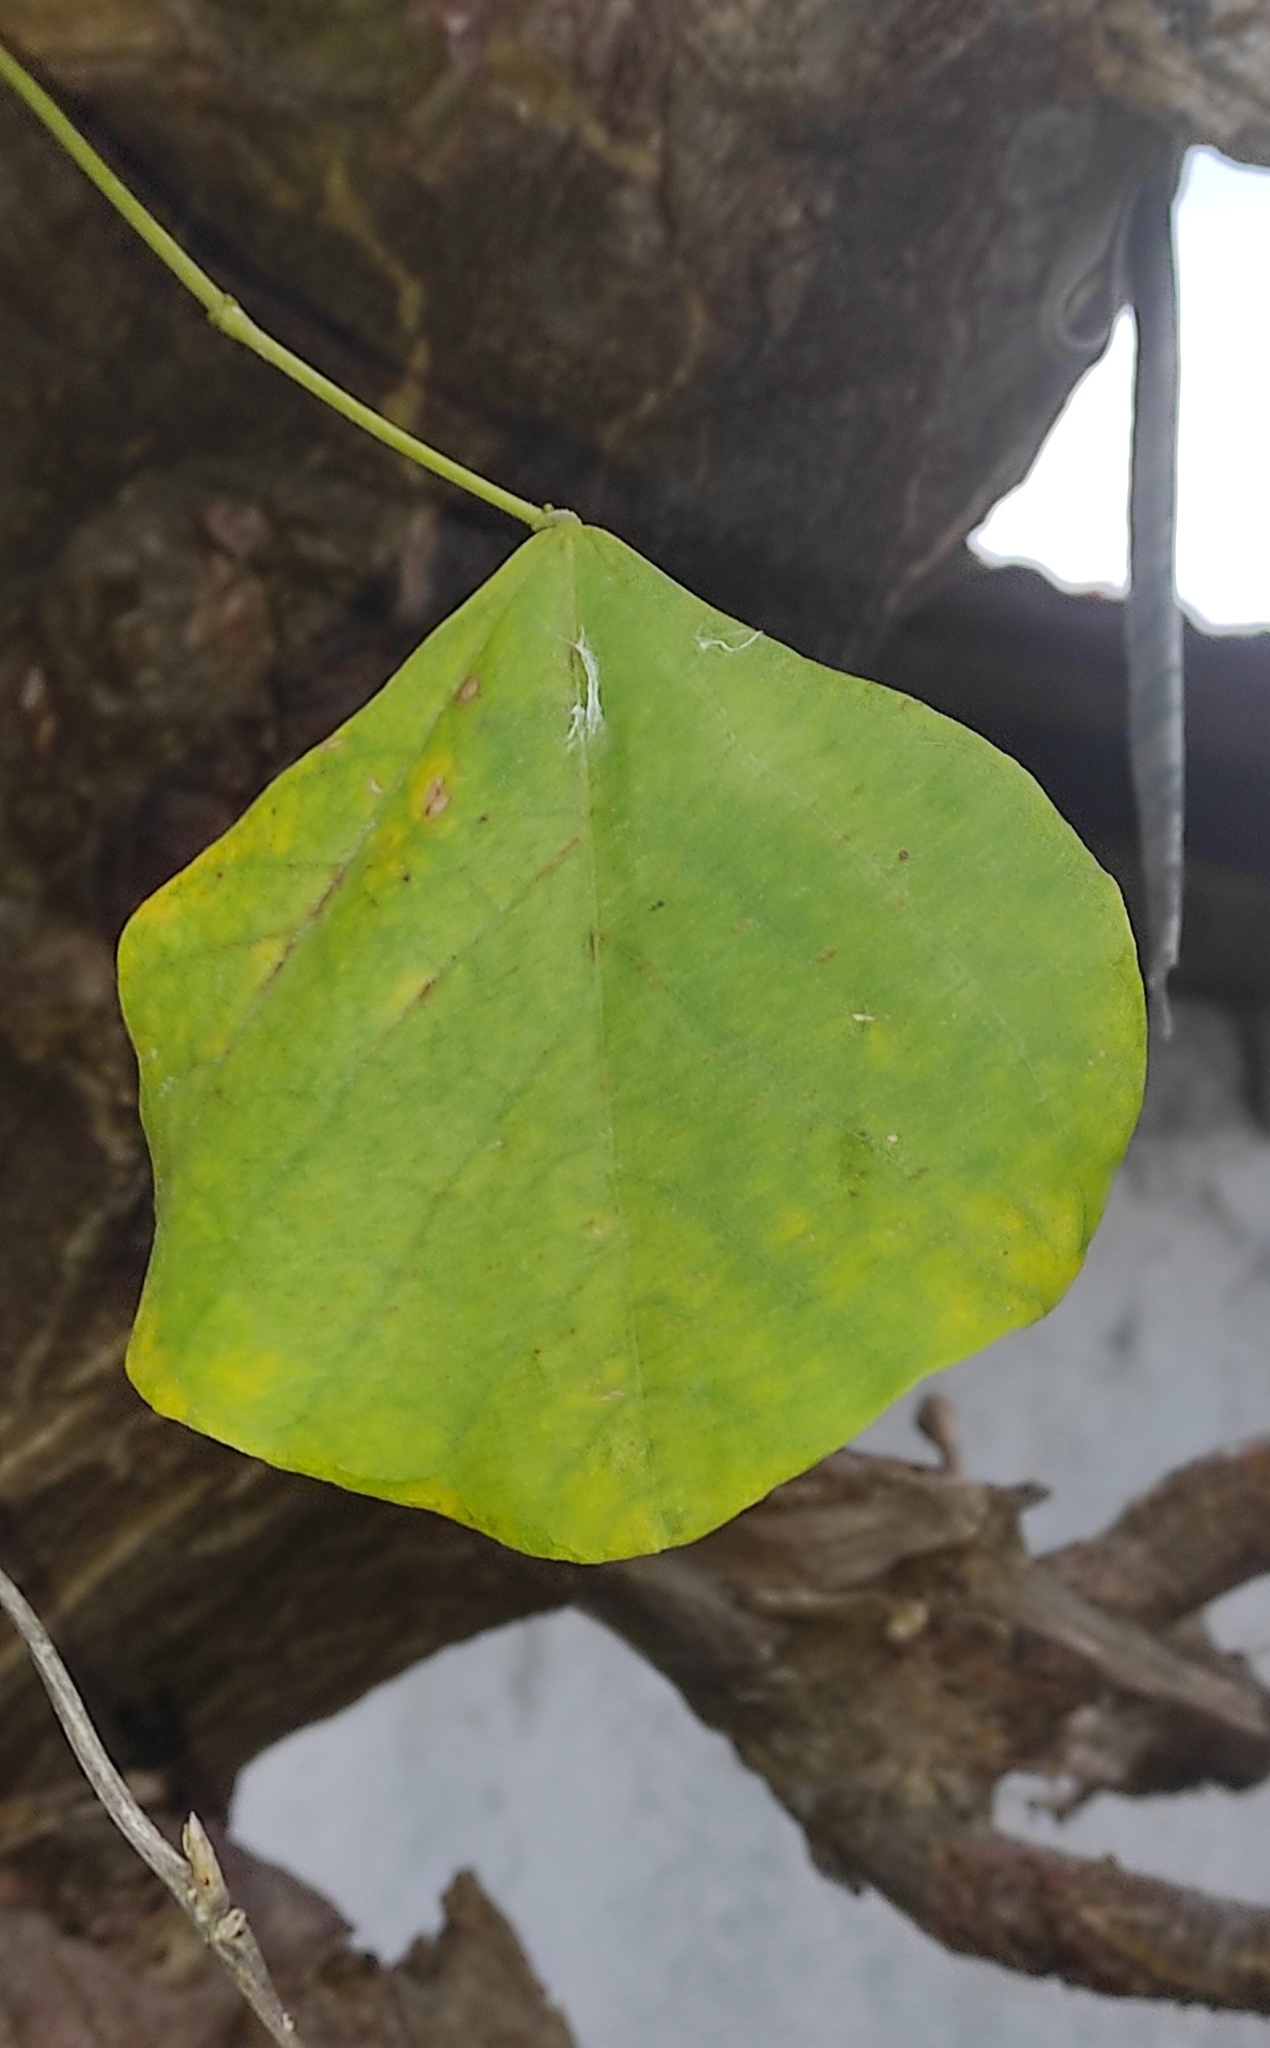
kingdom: Plantae
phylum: Tracheophyta
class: Magnoliopsida
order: Fabales
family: Fabaceae
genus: Erythrina
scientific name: Erythrina velutina
